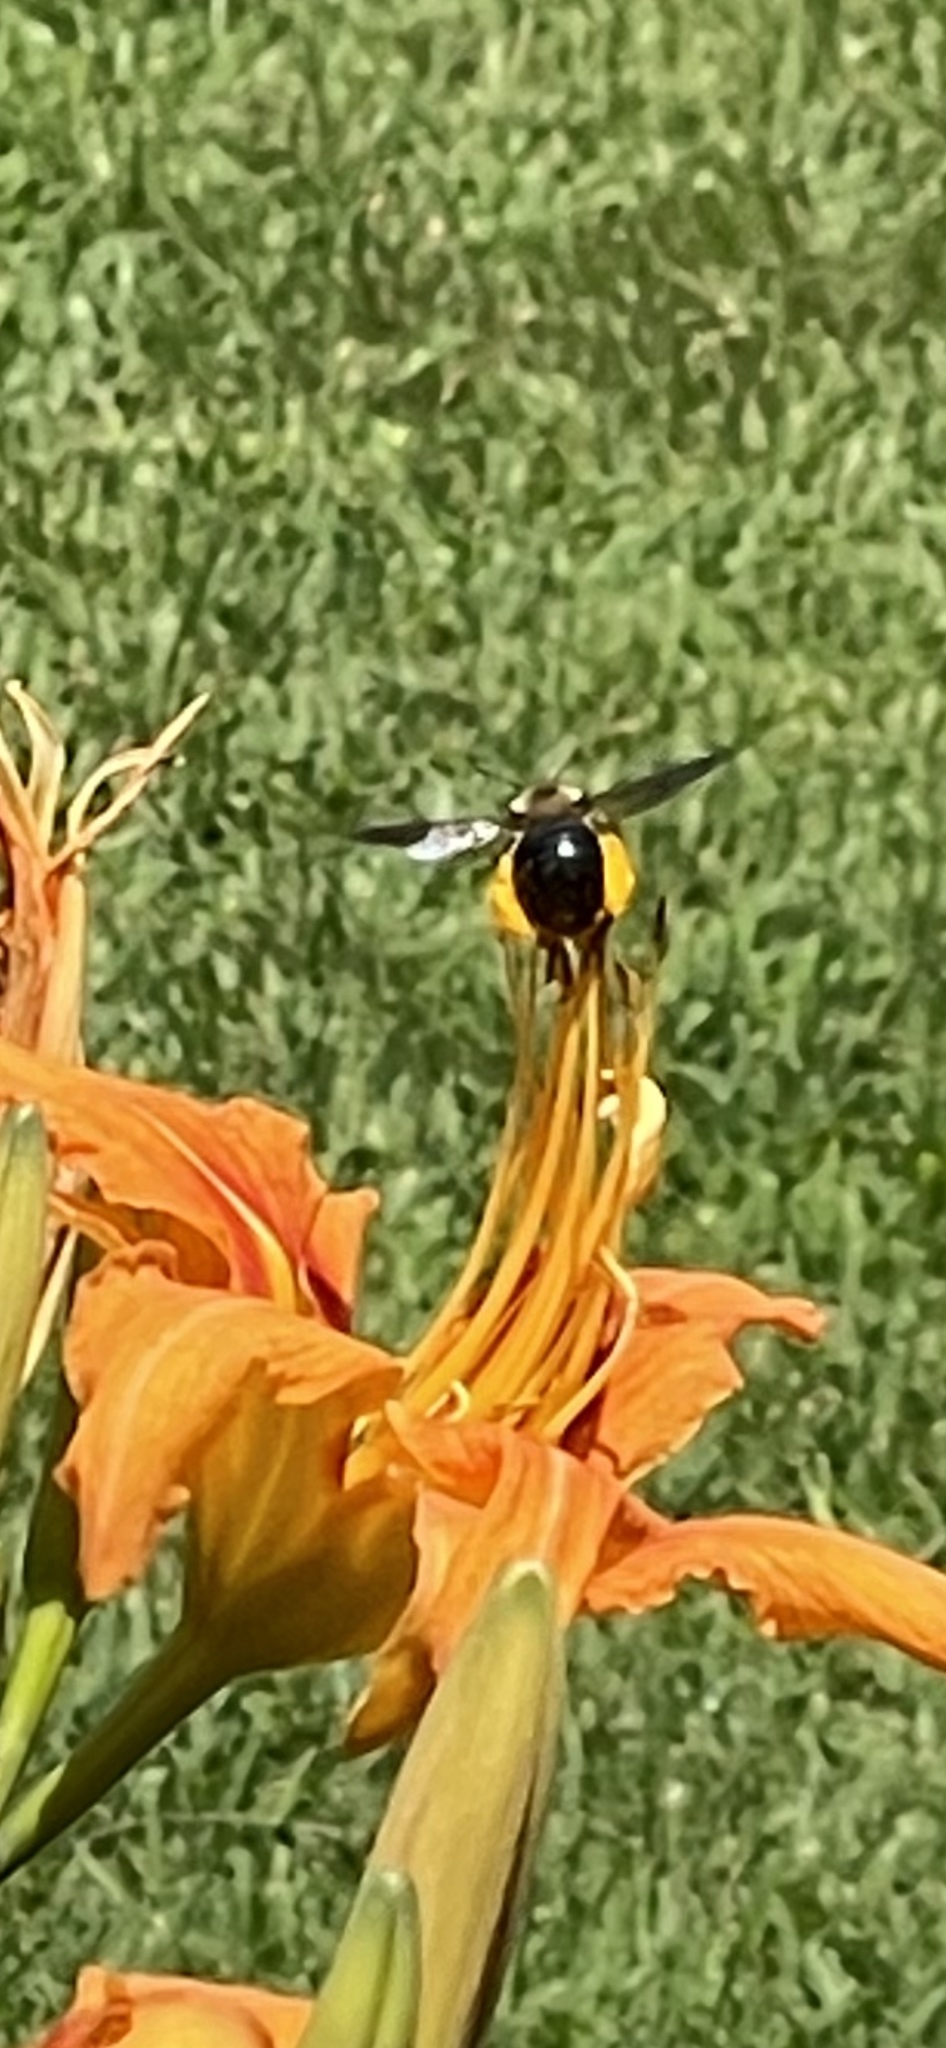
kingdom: Animalia
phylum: Arthropoda
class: Insecta
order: Hymenoptera
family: Apidae
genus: Xylocopa
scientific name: Xylocopa virginica
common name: Carpenter bee
